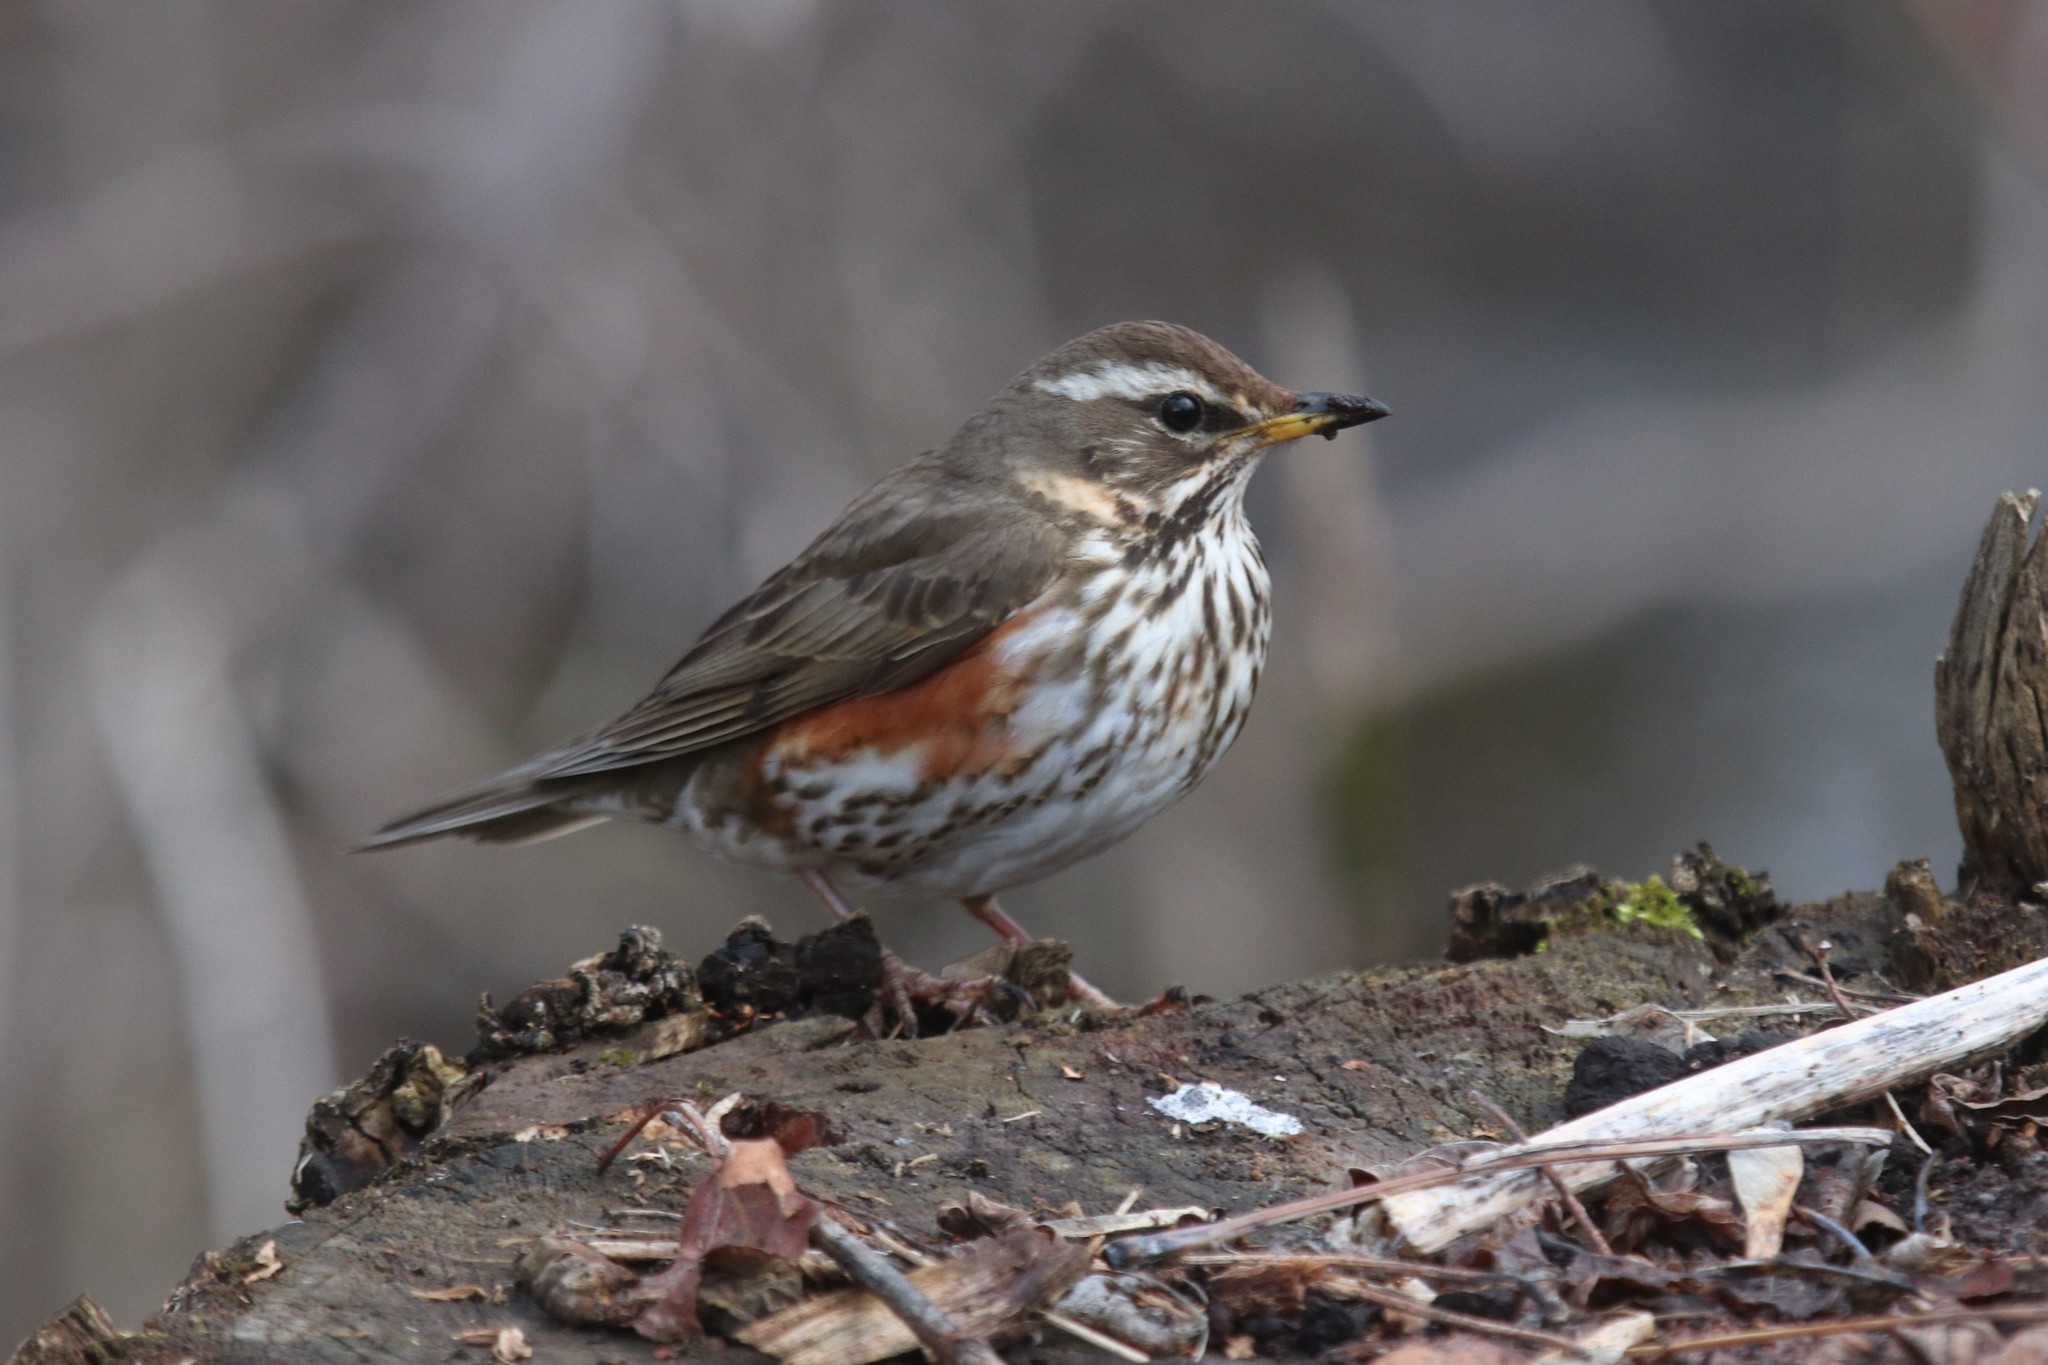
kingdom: Animalia
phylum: Chordata
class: Aves
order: Passeriformes
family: Turdidae
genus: Turdus
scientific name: Turdus iliacus
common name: Redwing
